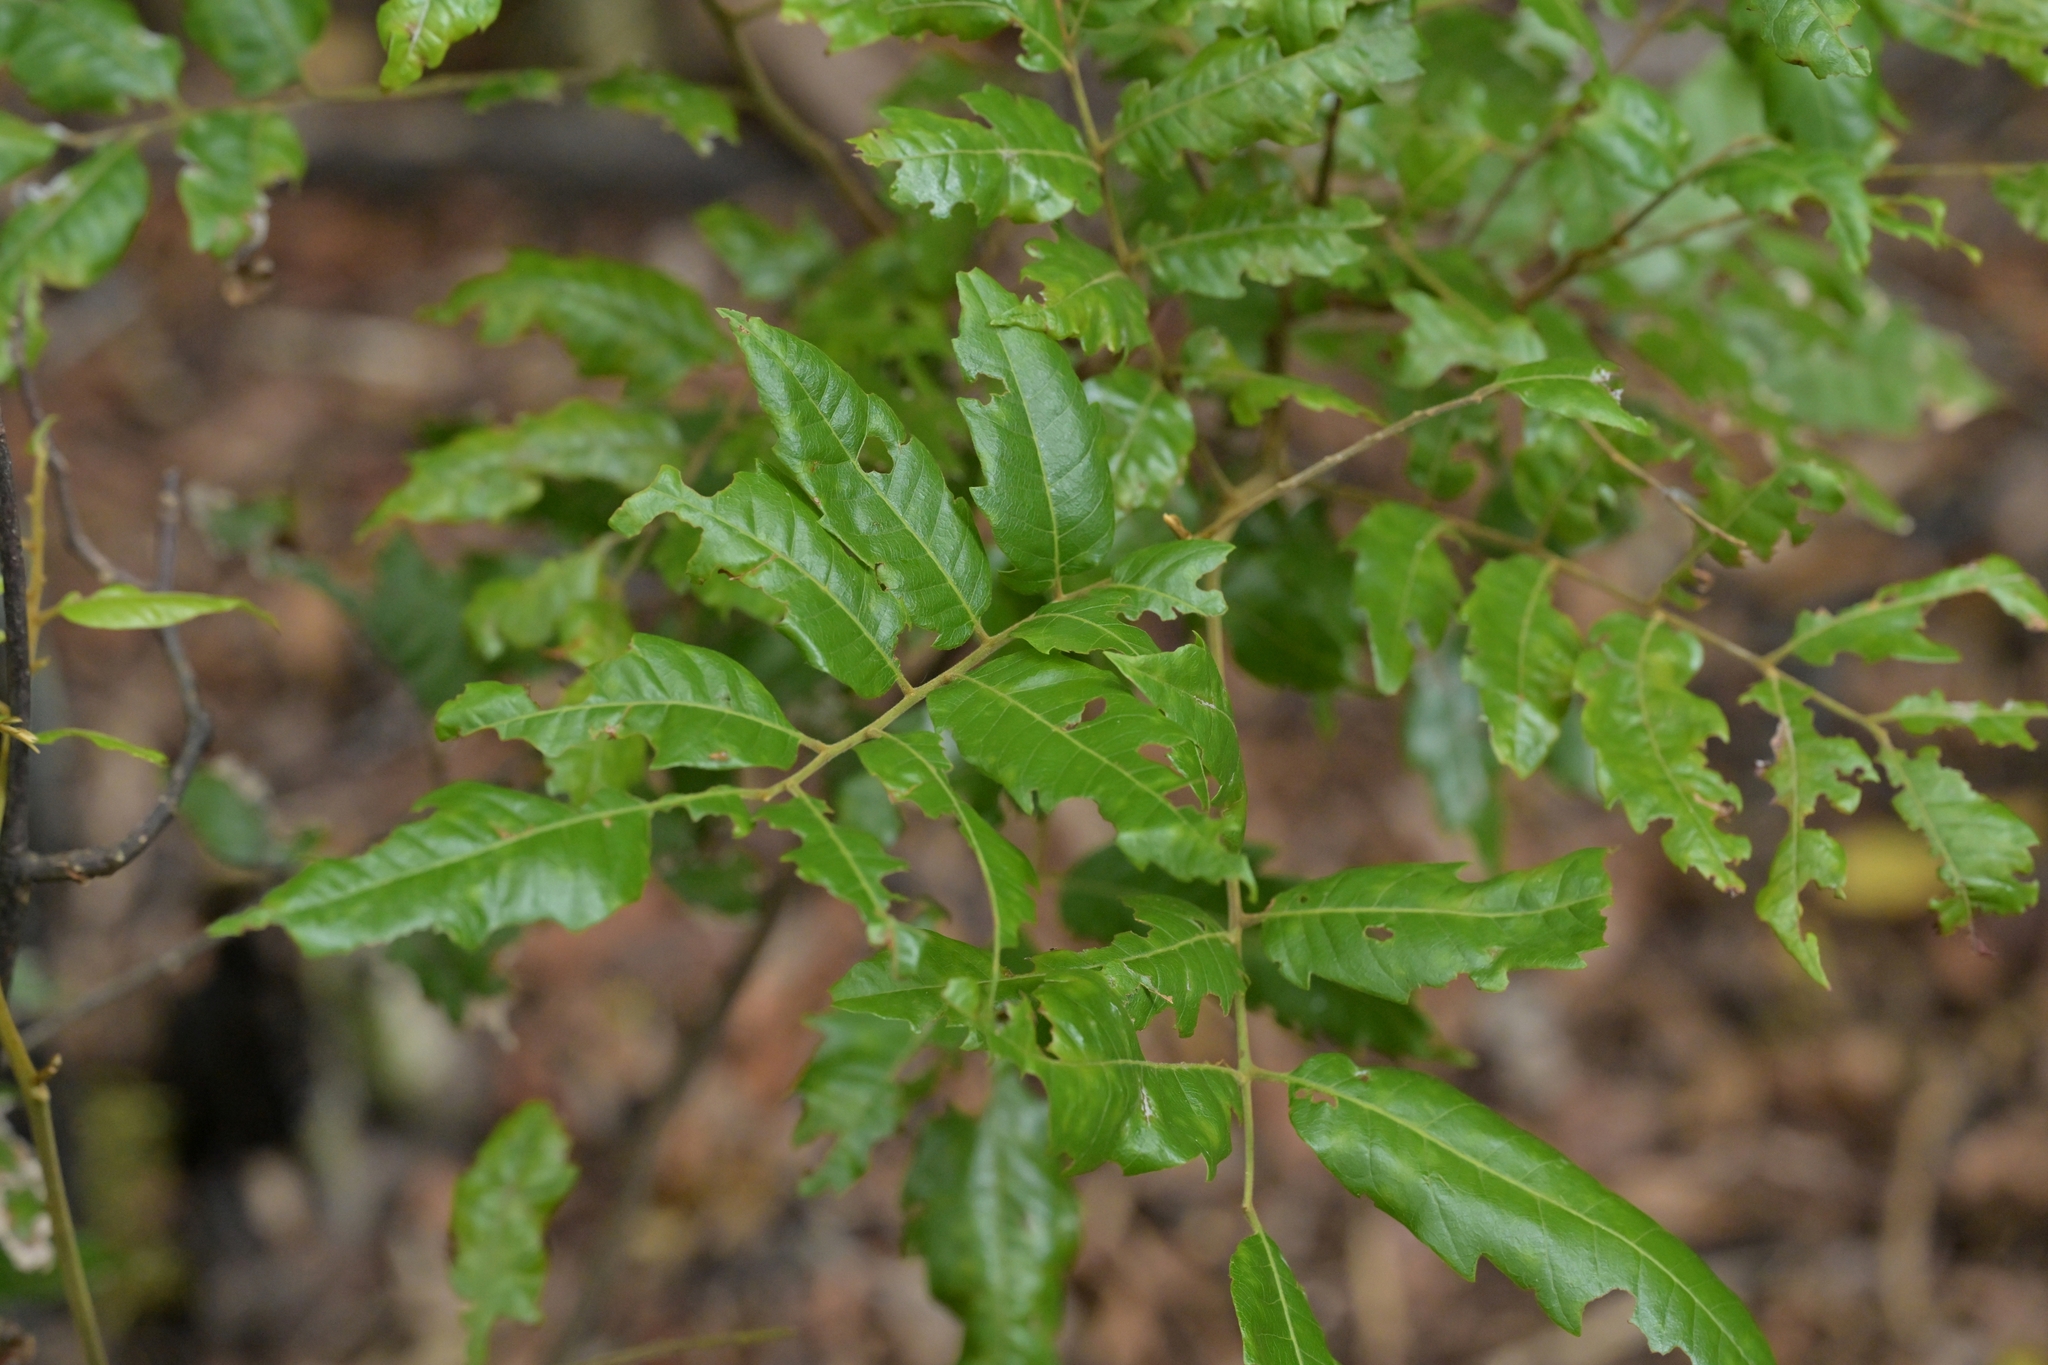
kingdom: Plantae
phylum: Tracheophyta
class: Magnoliopsida
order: Sapindales
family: Sapindaceae
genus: Alectryon
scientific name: Alectryon excelsus
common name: Three kings titoki
